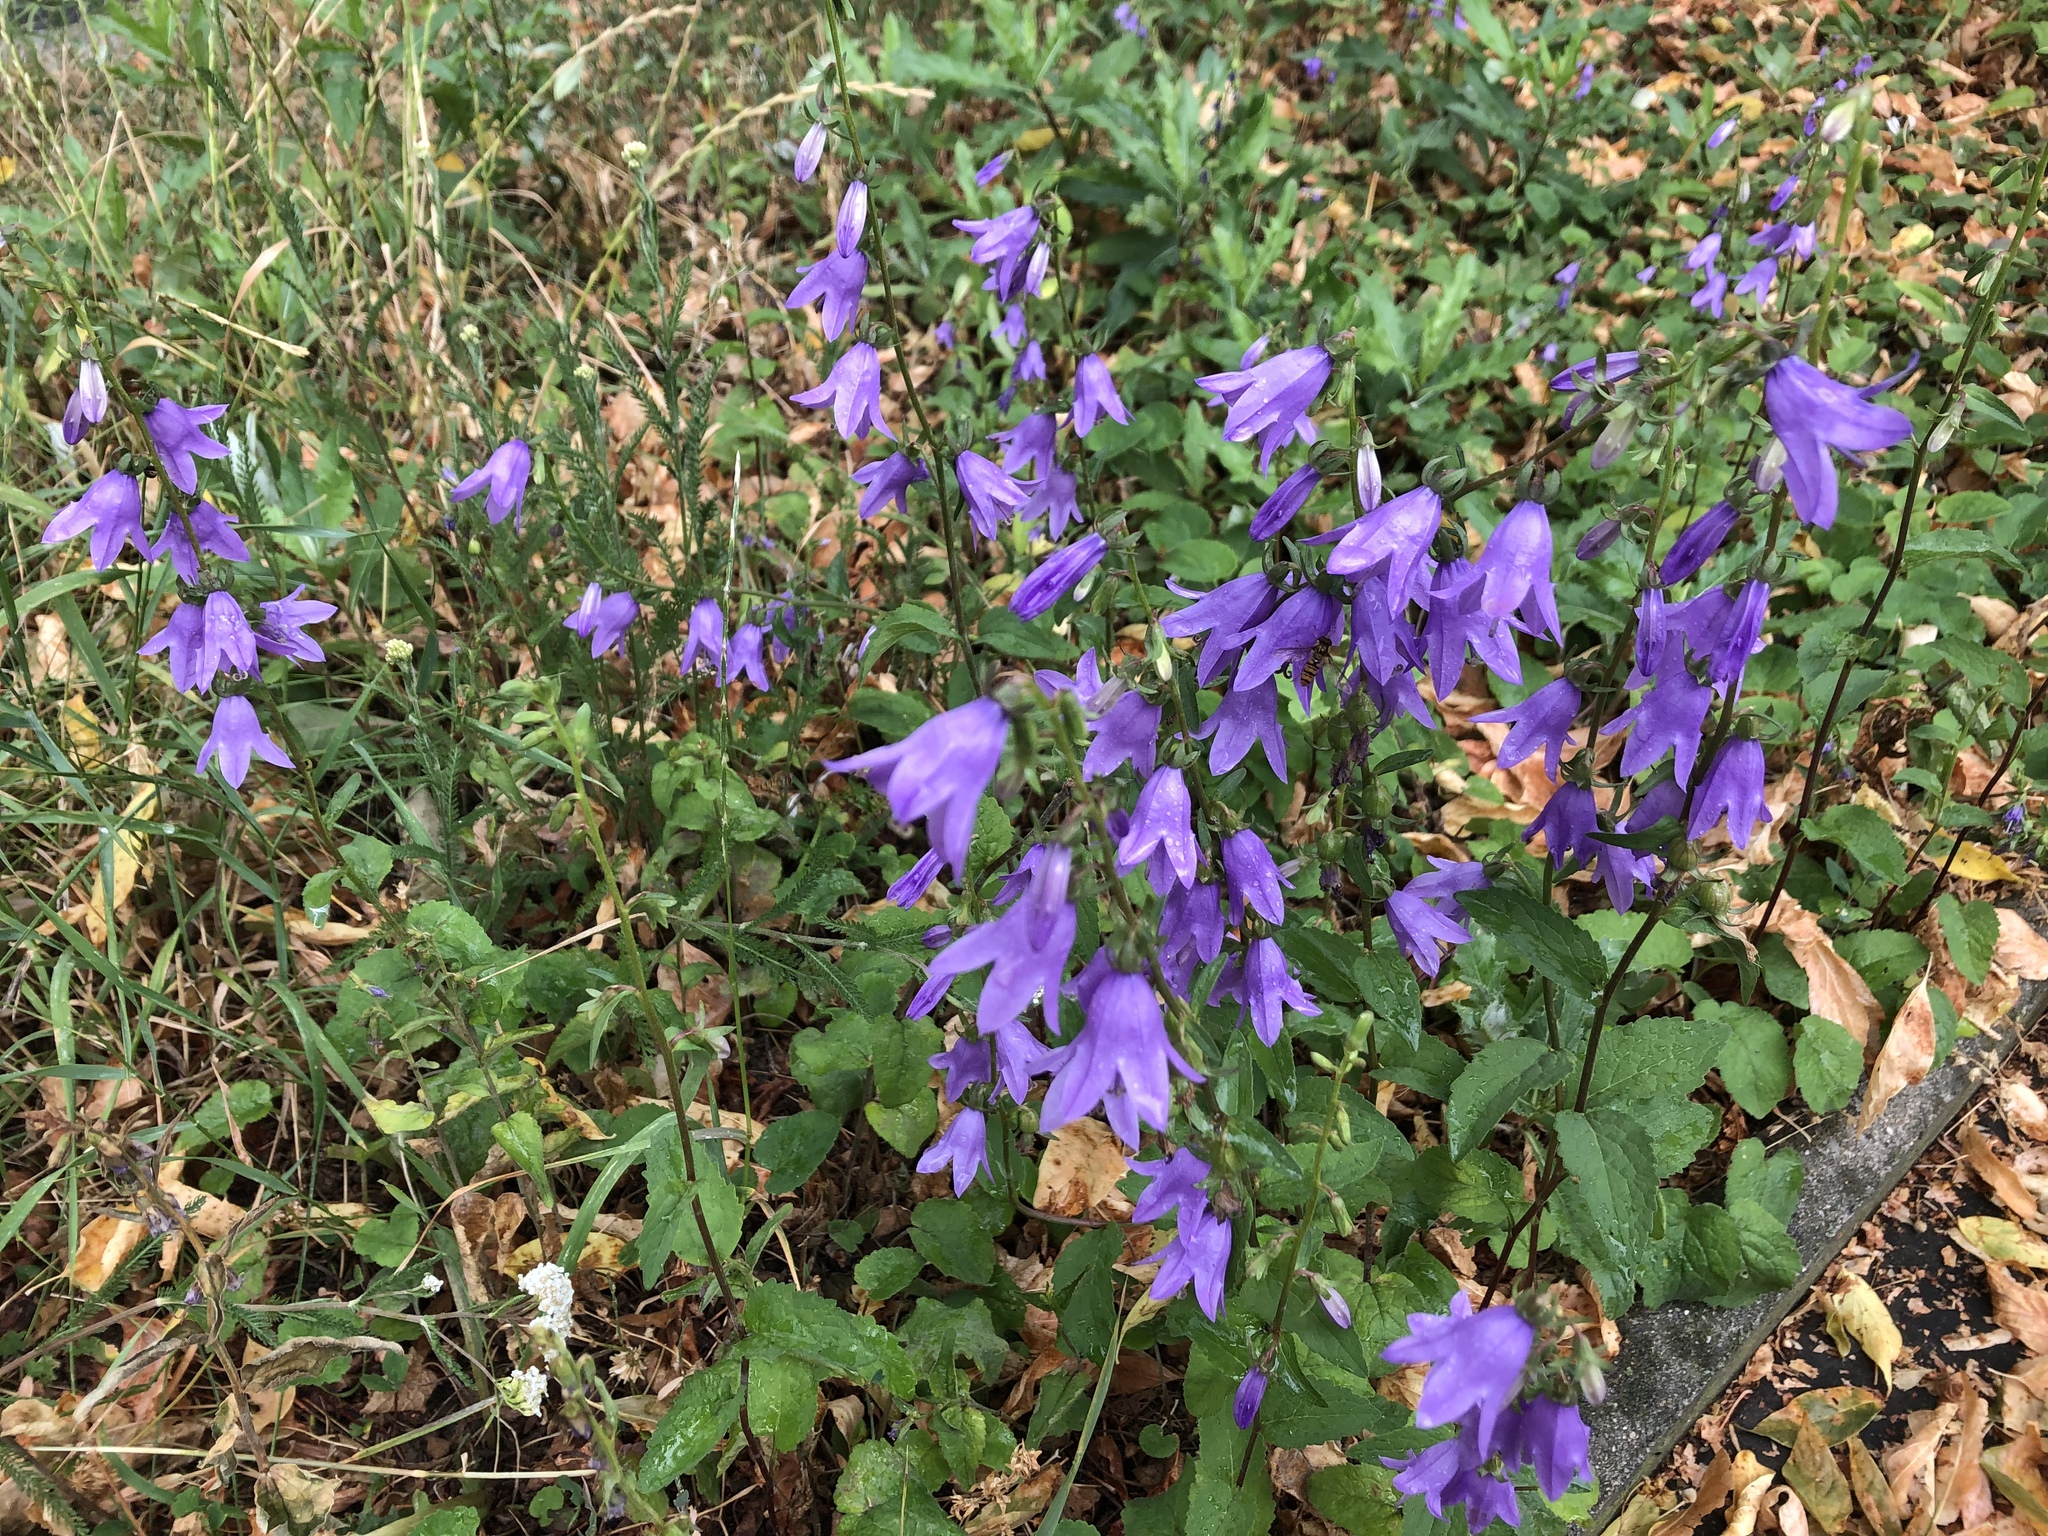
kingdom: Plantae
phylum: Tracheophyta
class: Magnoliopsida
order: Asterales
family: Campanulaceae
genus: Campanula
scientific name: Campanula rapunculoides
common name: Creeping bellflower
